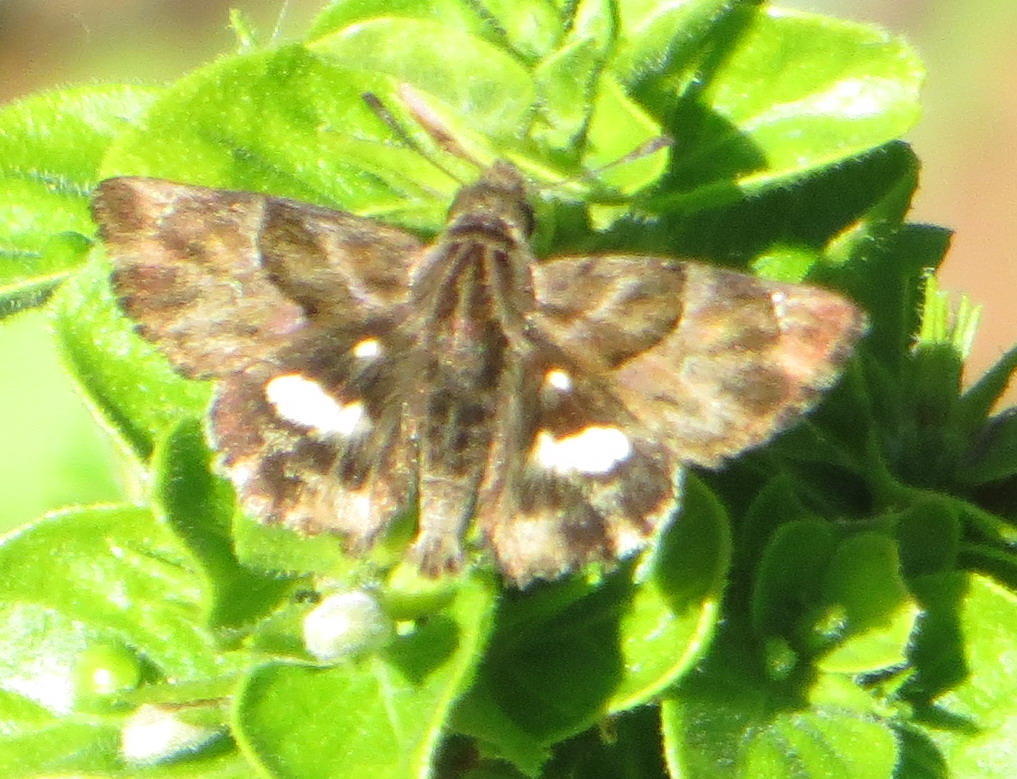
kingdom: Animalia
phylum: Arthropoda
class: Insecta
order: Lepidoptera
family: Hesperiidae
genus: Gomalia
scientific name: Gomalia elma
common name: Green-marbled skipper
